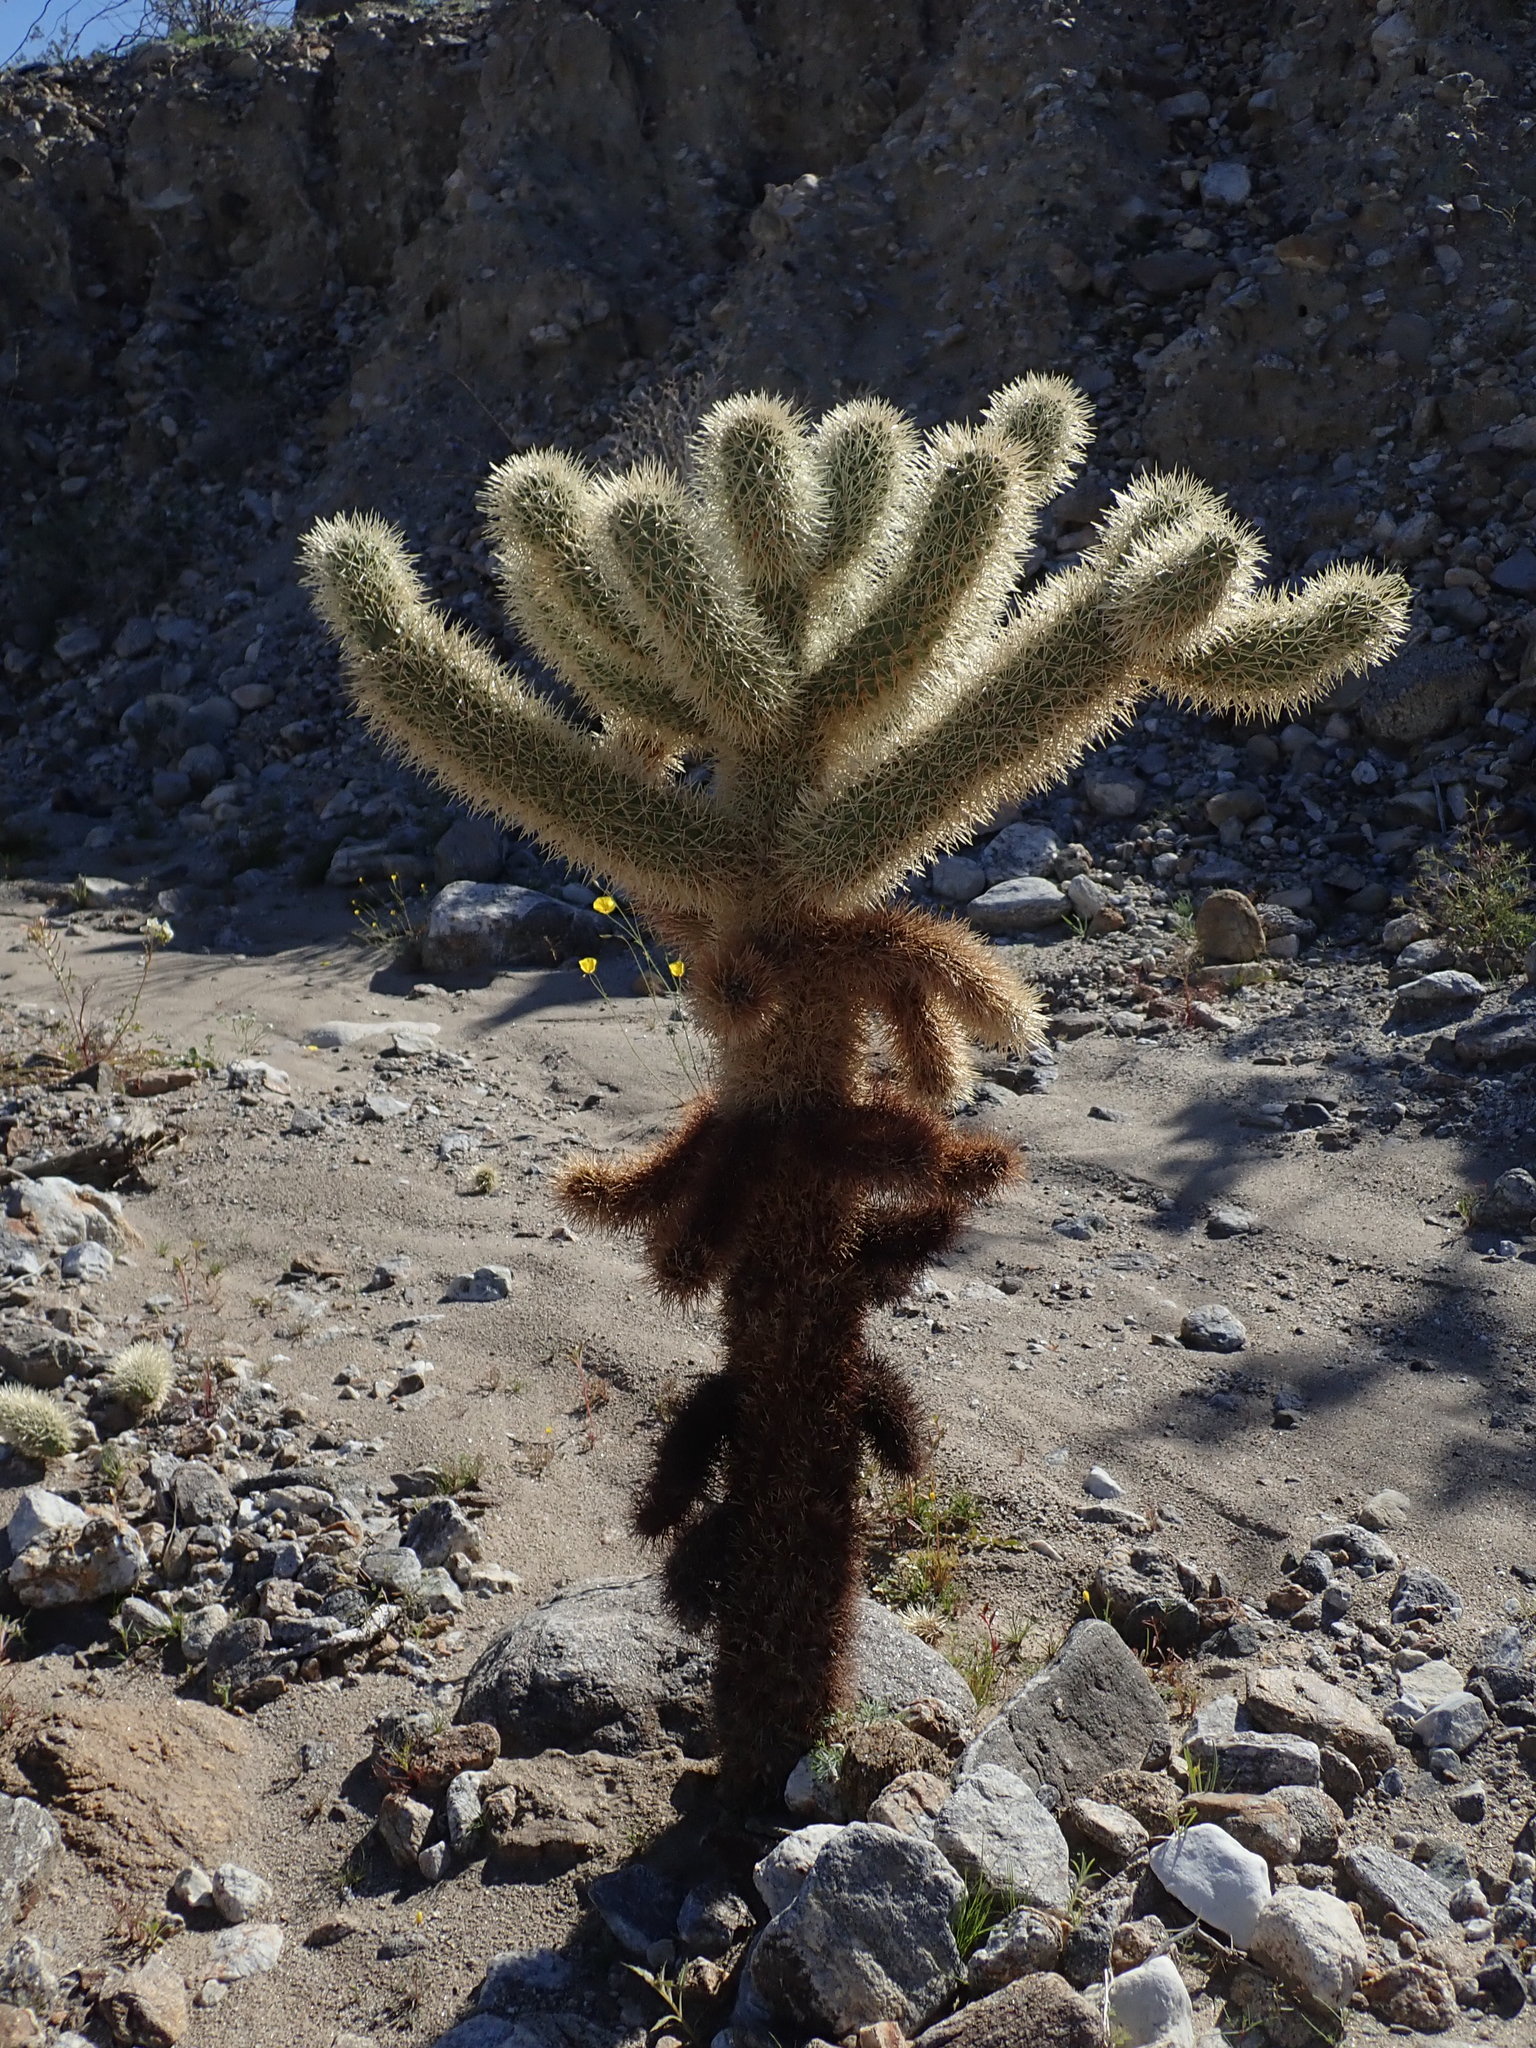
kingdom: Plantae
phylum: Tracheophyta
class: Magnoliopsida
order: Caryophyllales
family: Cactaceae
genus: Cylindropuntia
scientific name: Cylindropuntia fosbergii
